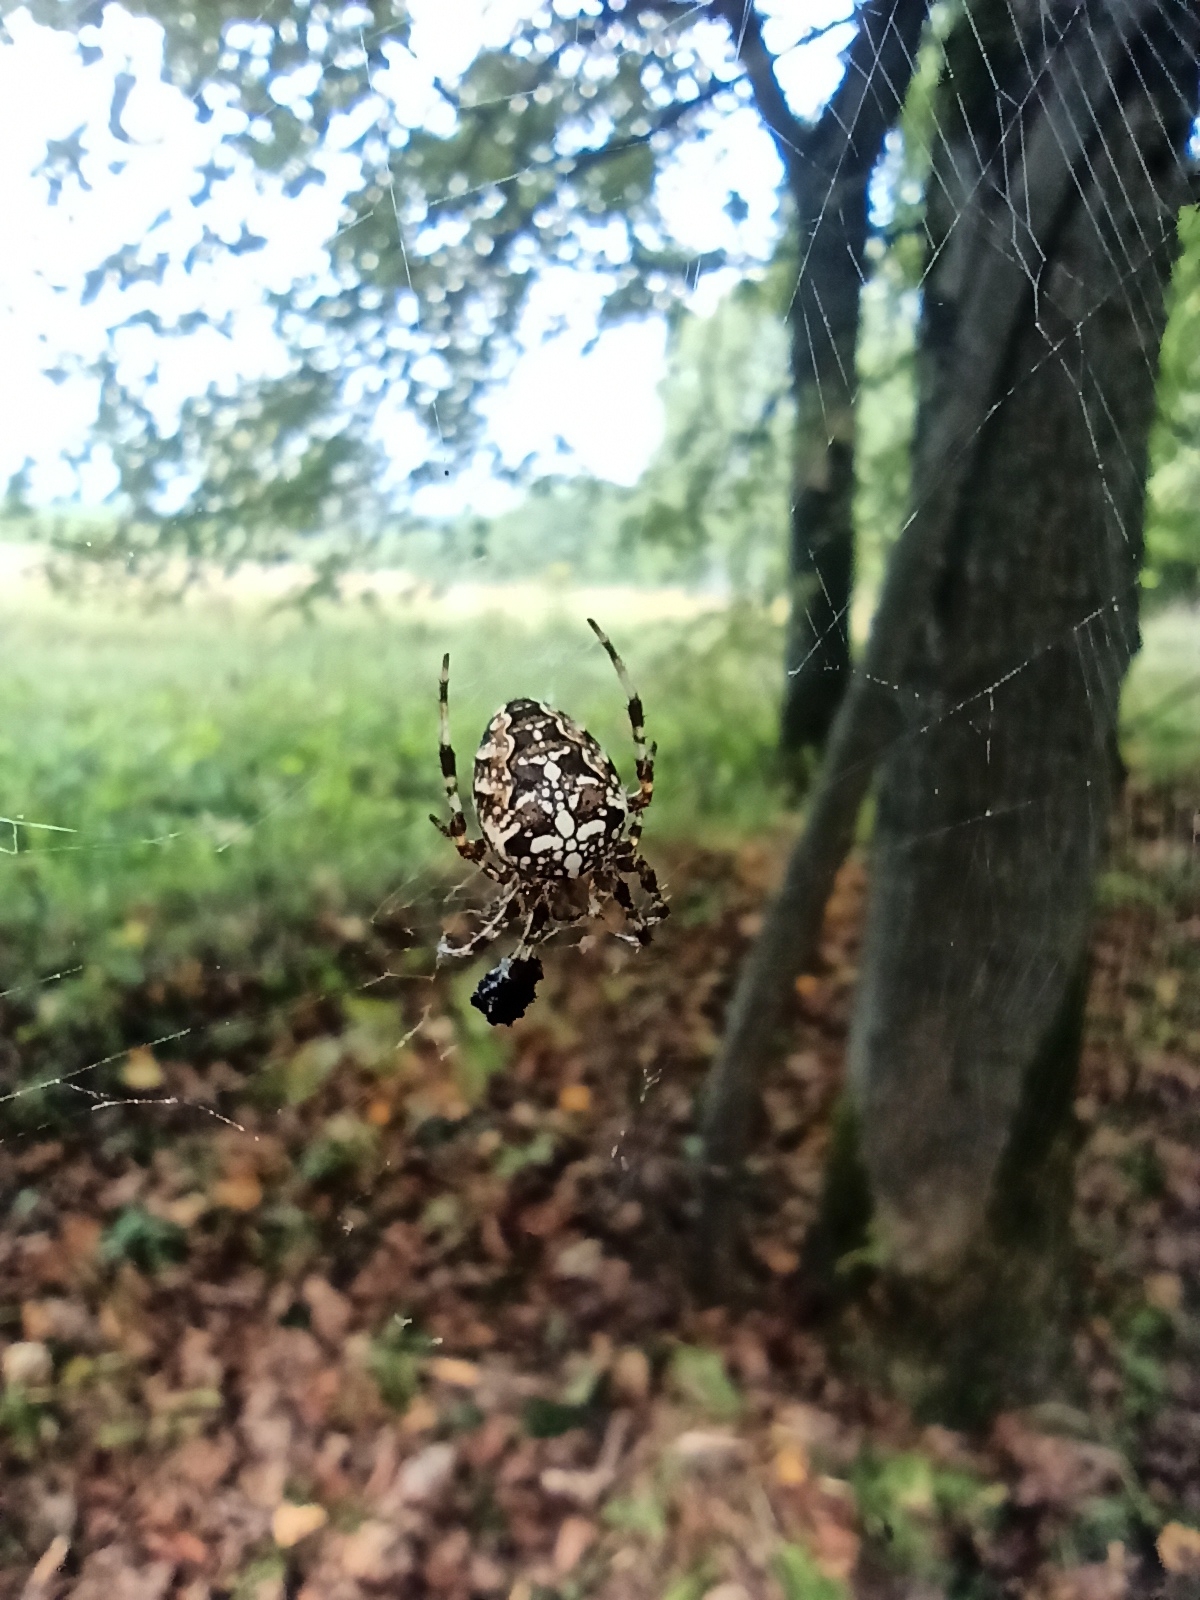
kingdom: Animalia
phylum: Arthropoda
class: Arachnida
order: Araneae
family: Araneidae
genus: Araneus
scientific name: Araneus diadematus
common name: Cross orbweaver
